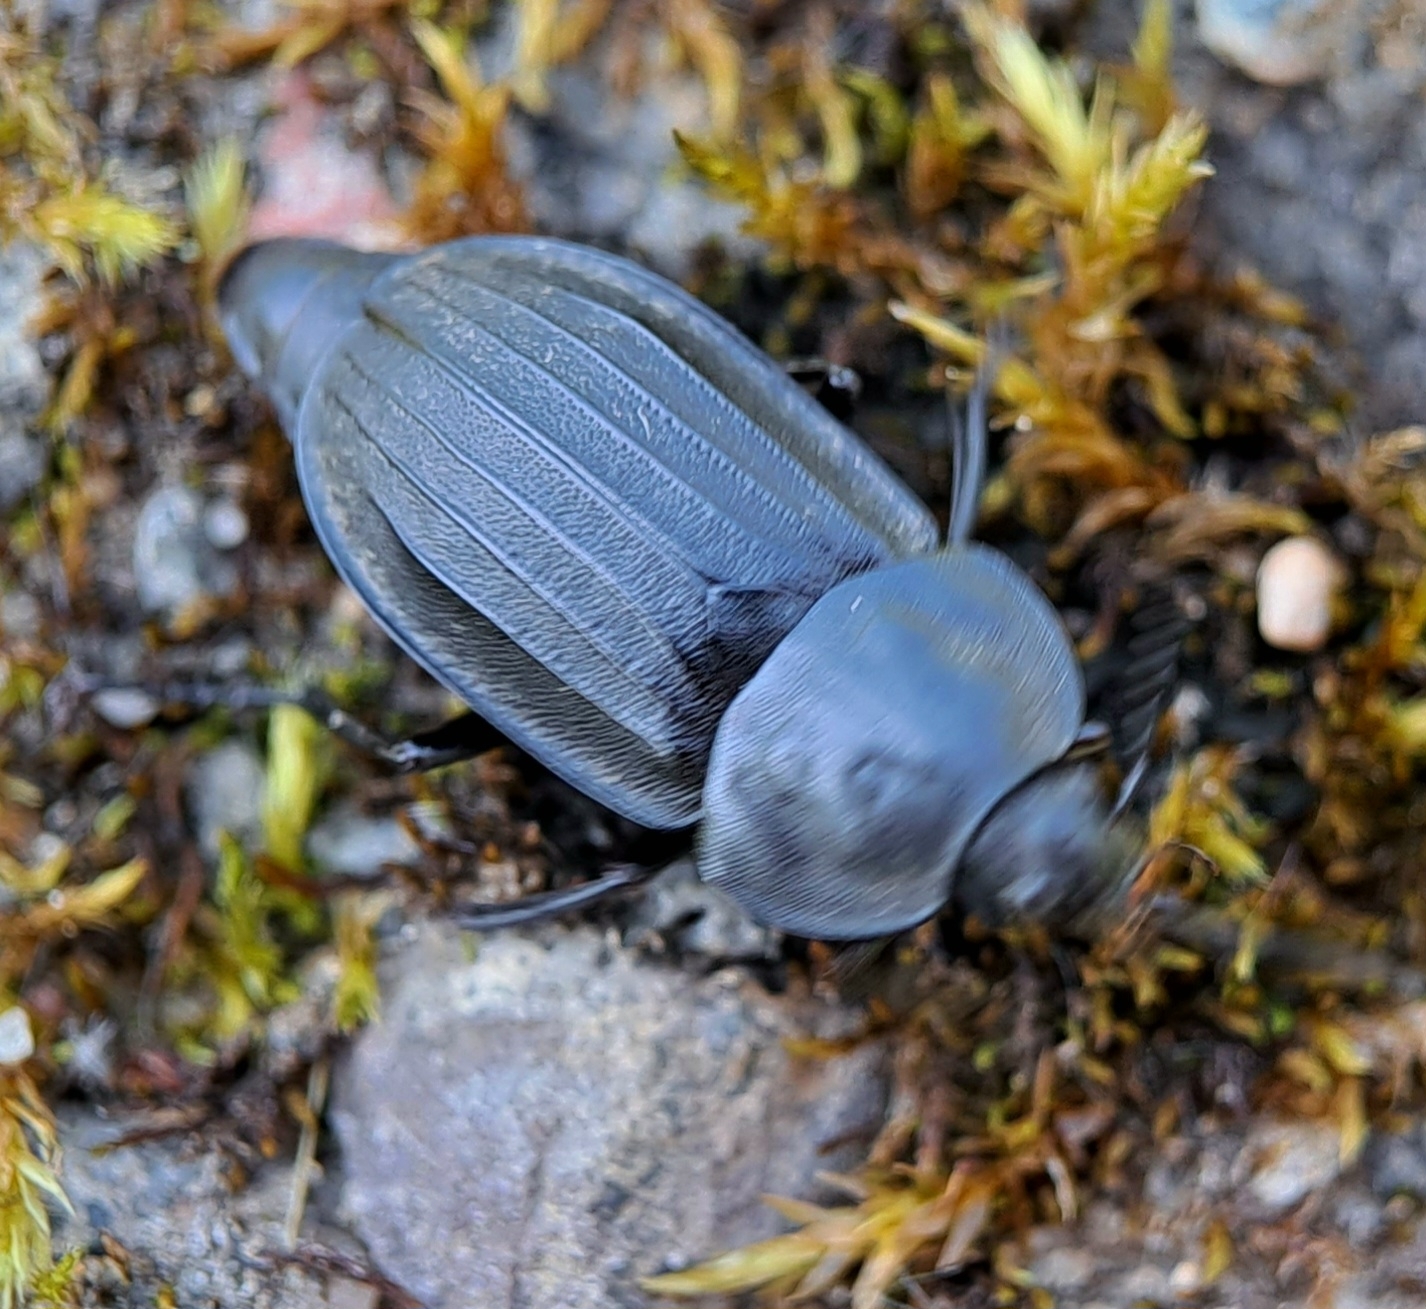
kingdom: Animalia
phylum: Arthropoda
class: Insecta
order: Coleoptera
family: Staphylinidae
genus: Silpha
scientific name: Silpha tristis
